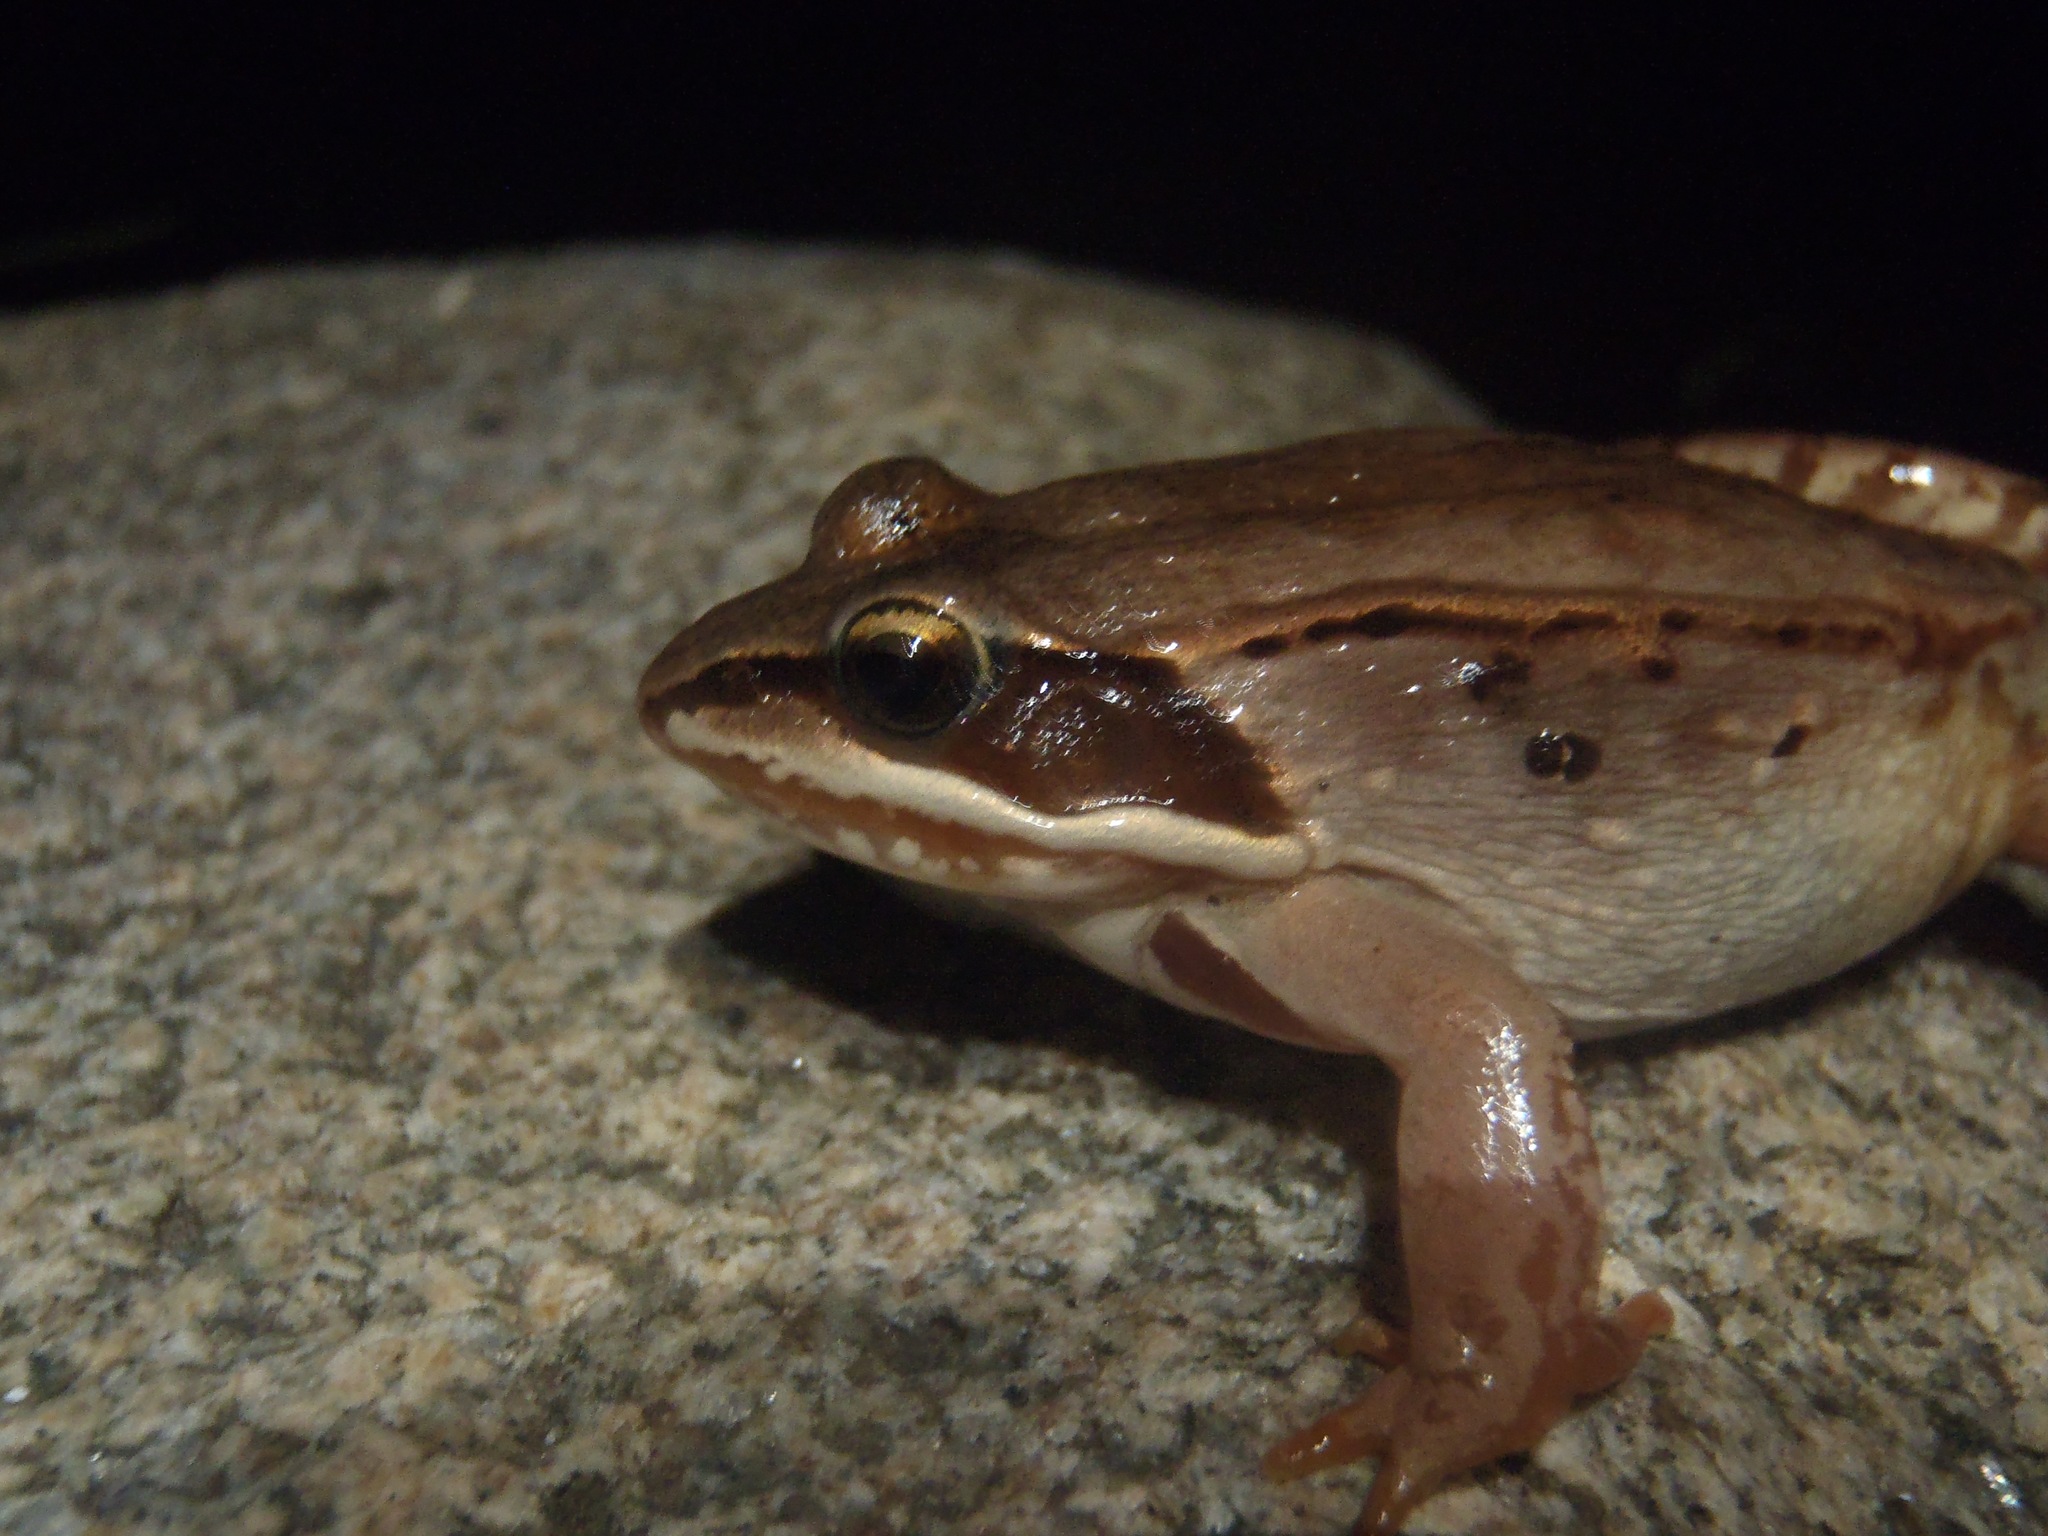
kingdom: Animalia
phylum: Chordata
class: Amphibia
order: Anura
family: Ranidae
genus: Lithobates
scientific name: Lithobates sylvaticus
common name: Wood frog
